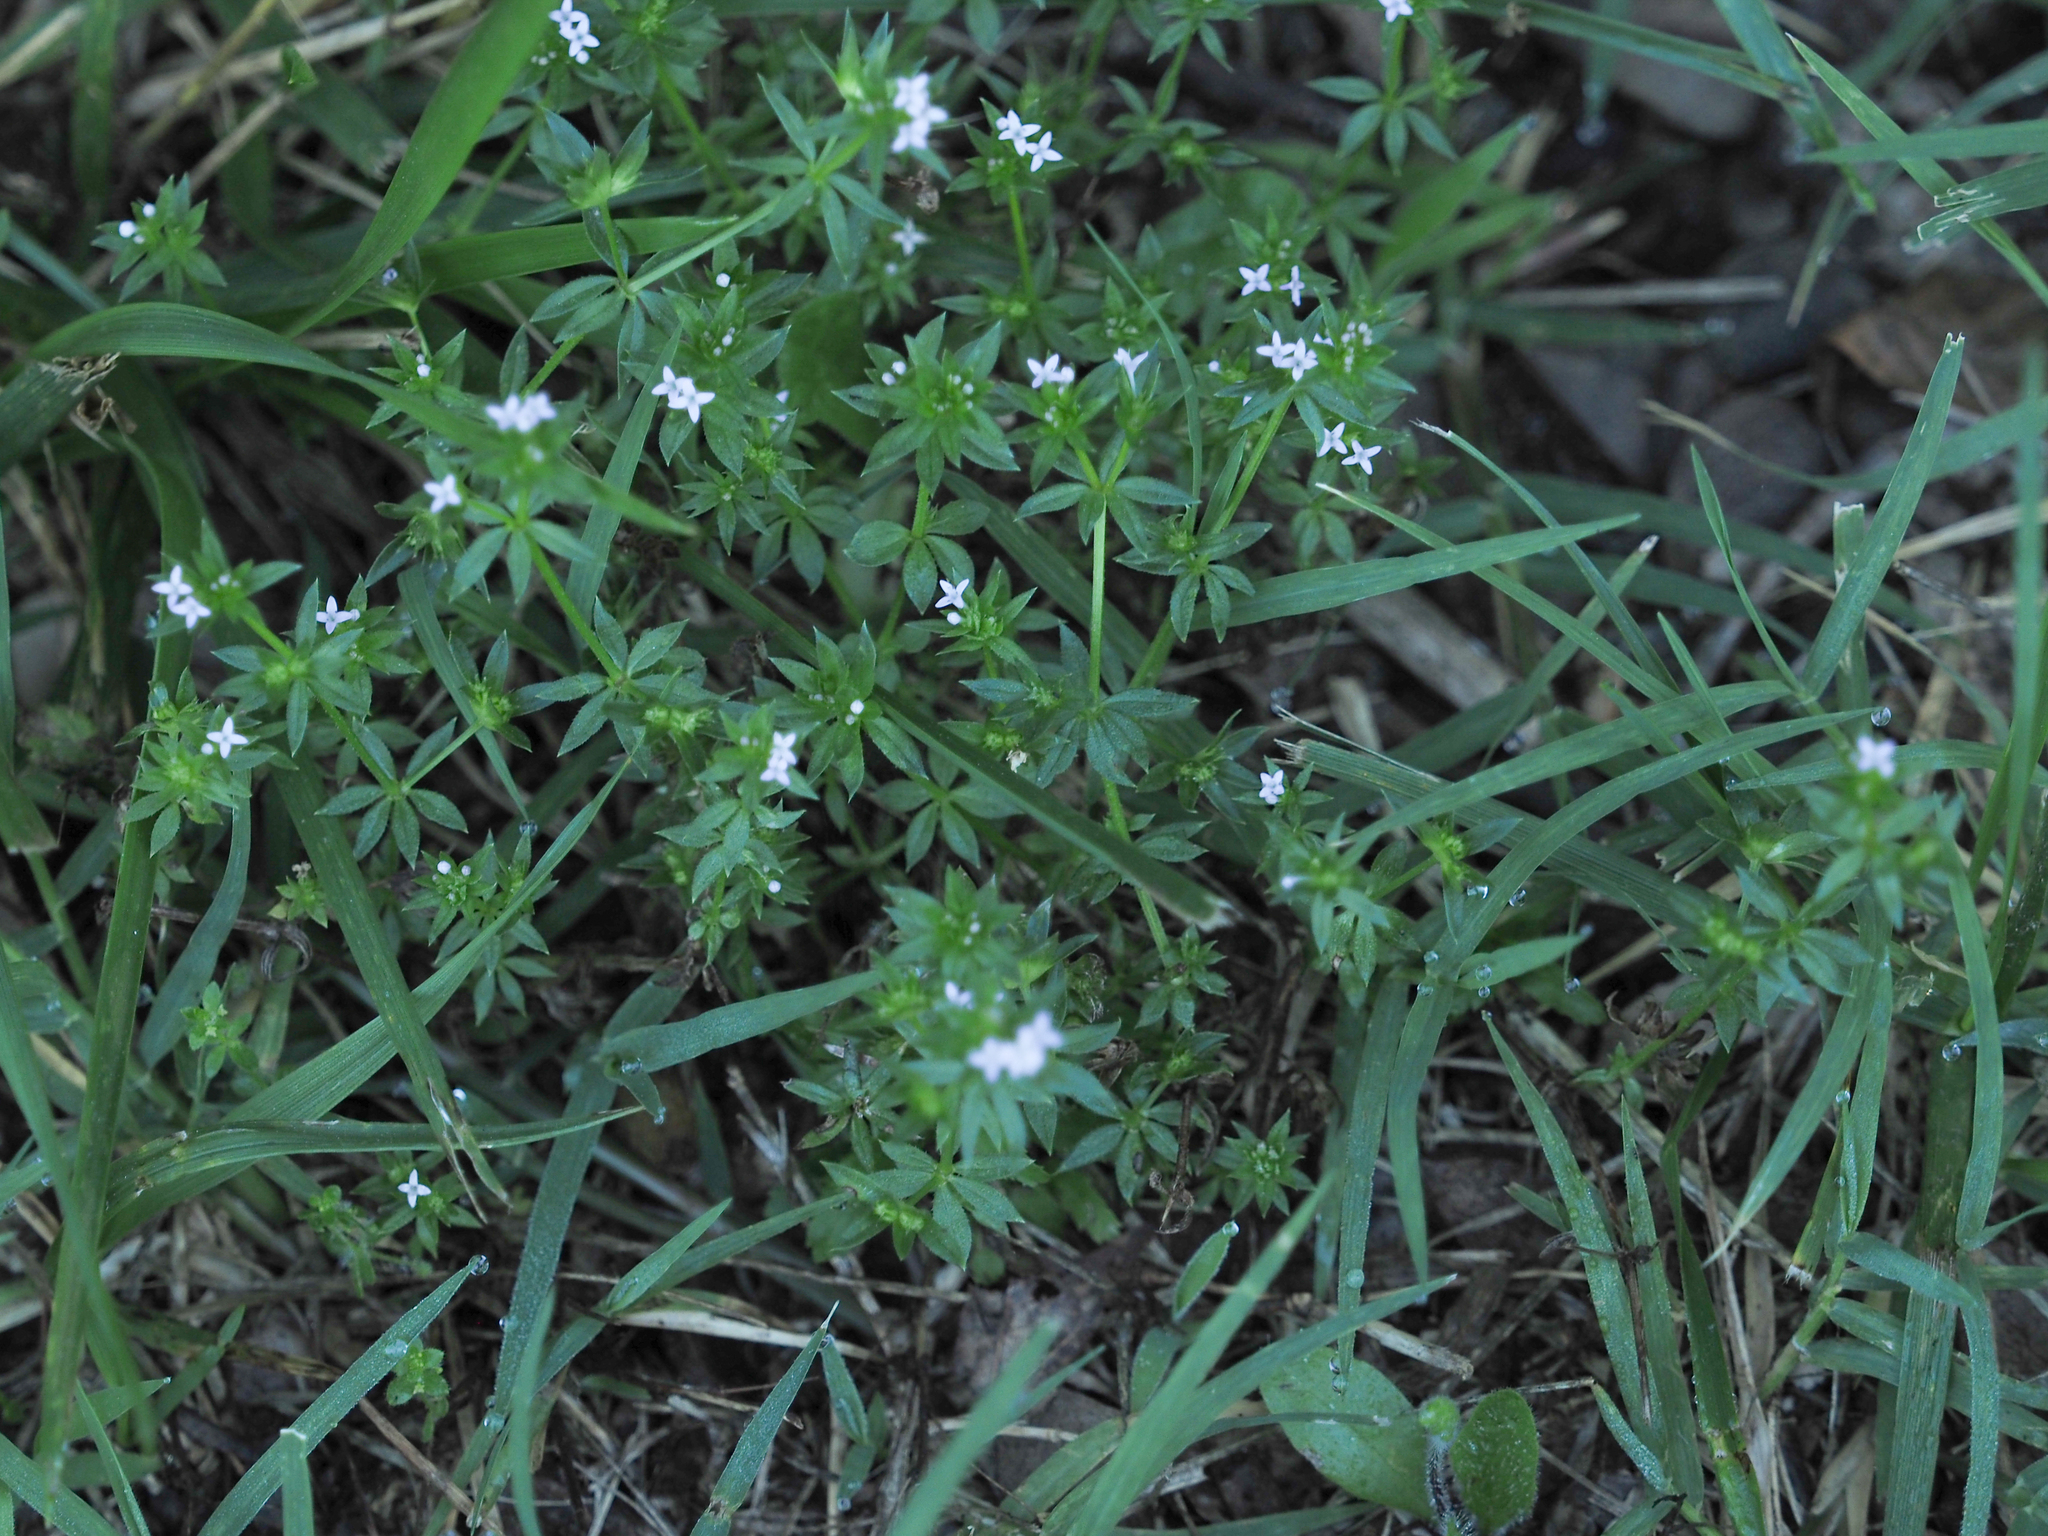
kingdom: Plantae
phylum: Tracheophyta
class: Magnoliopsida
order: Gentianales
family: Rubiaceae
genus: Sherardia
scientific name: Sherardia arvensis
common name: Field madder
